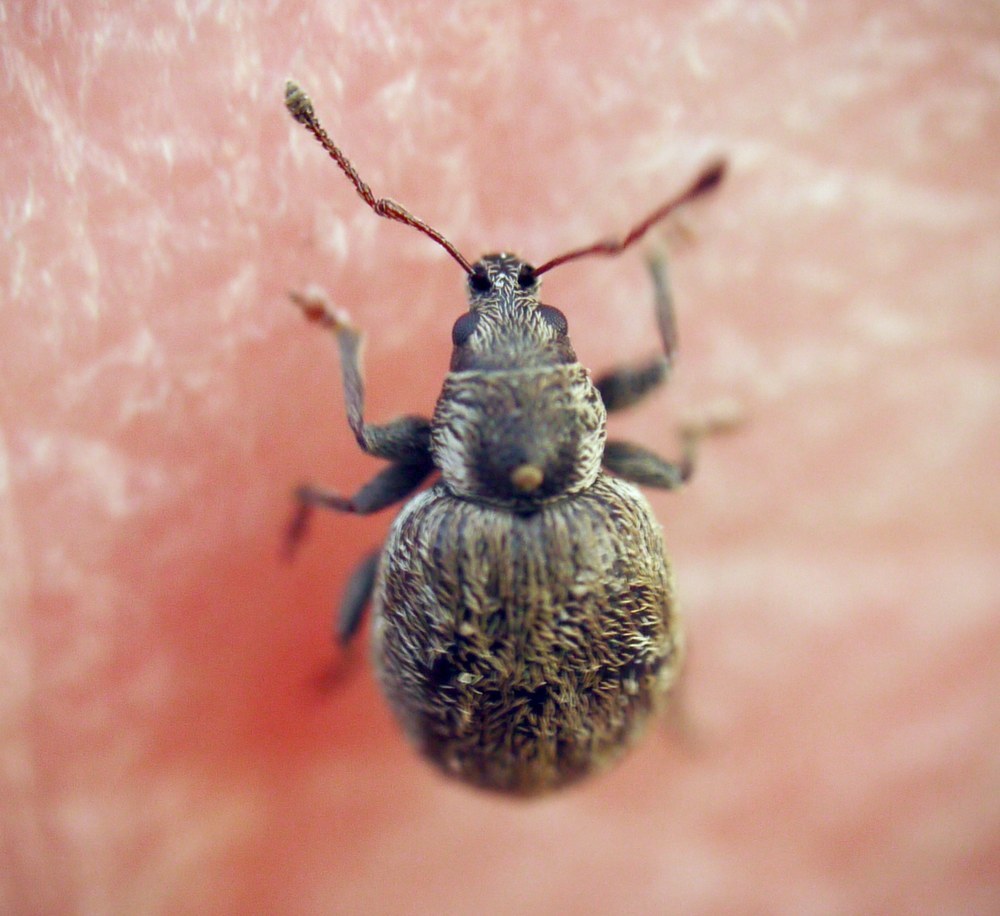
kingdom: Animalia
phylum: Arthropoda
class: Insecta
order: Coleoptera
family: Curculionidae
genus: Omias
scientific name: Omias verruca
